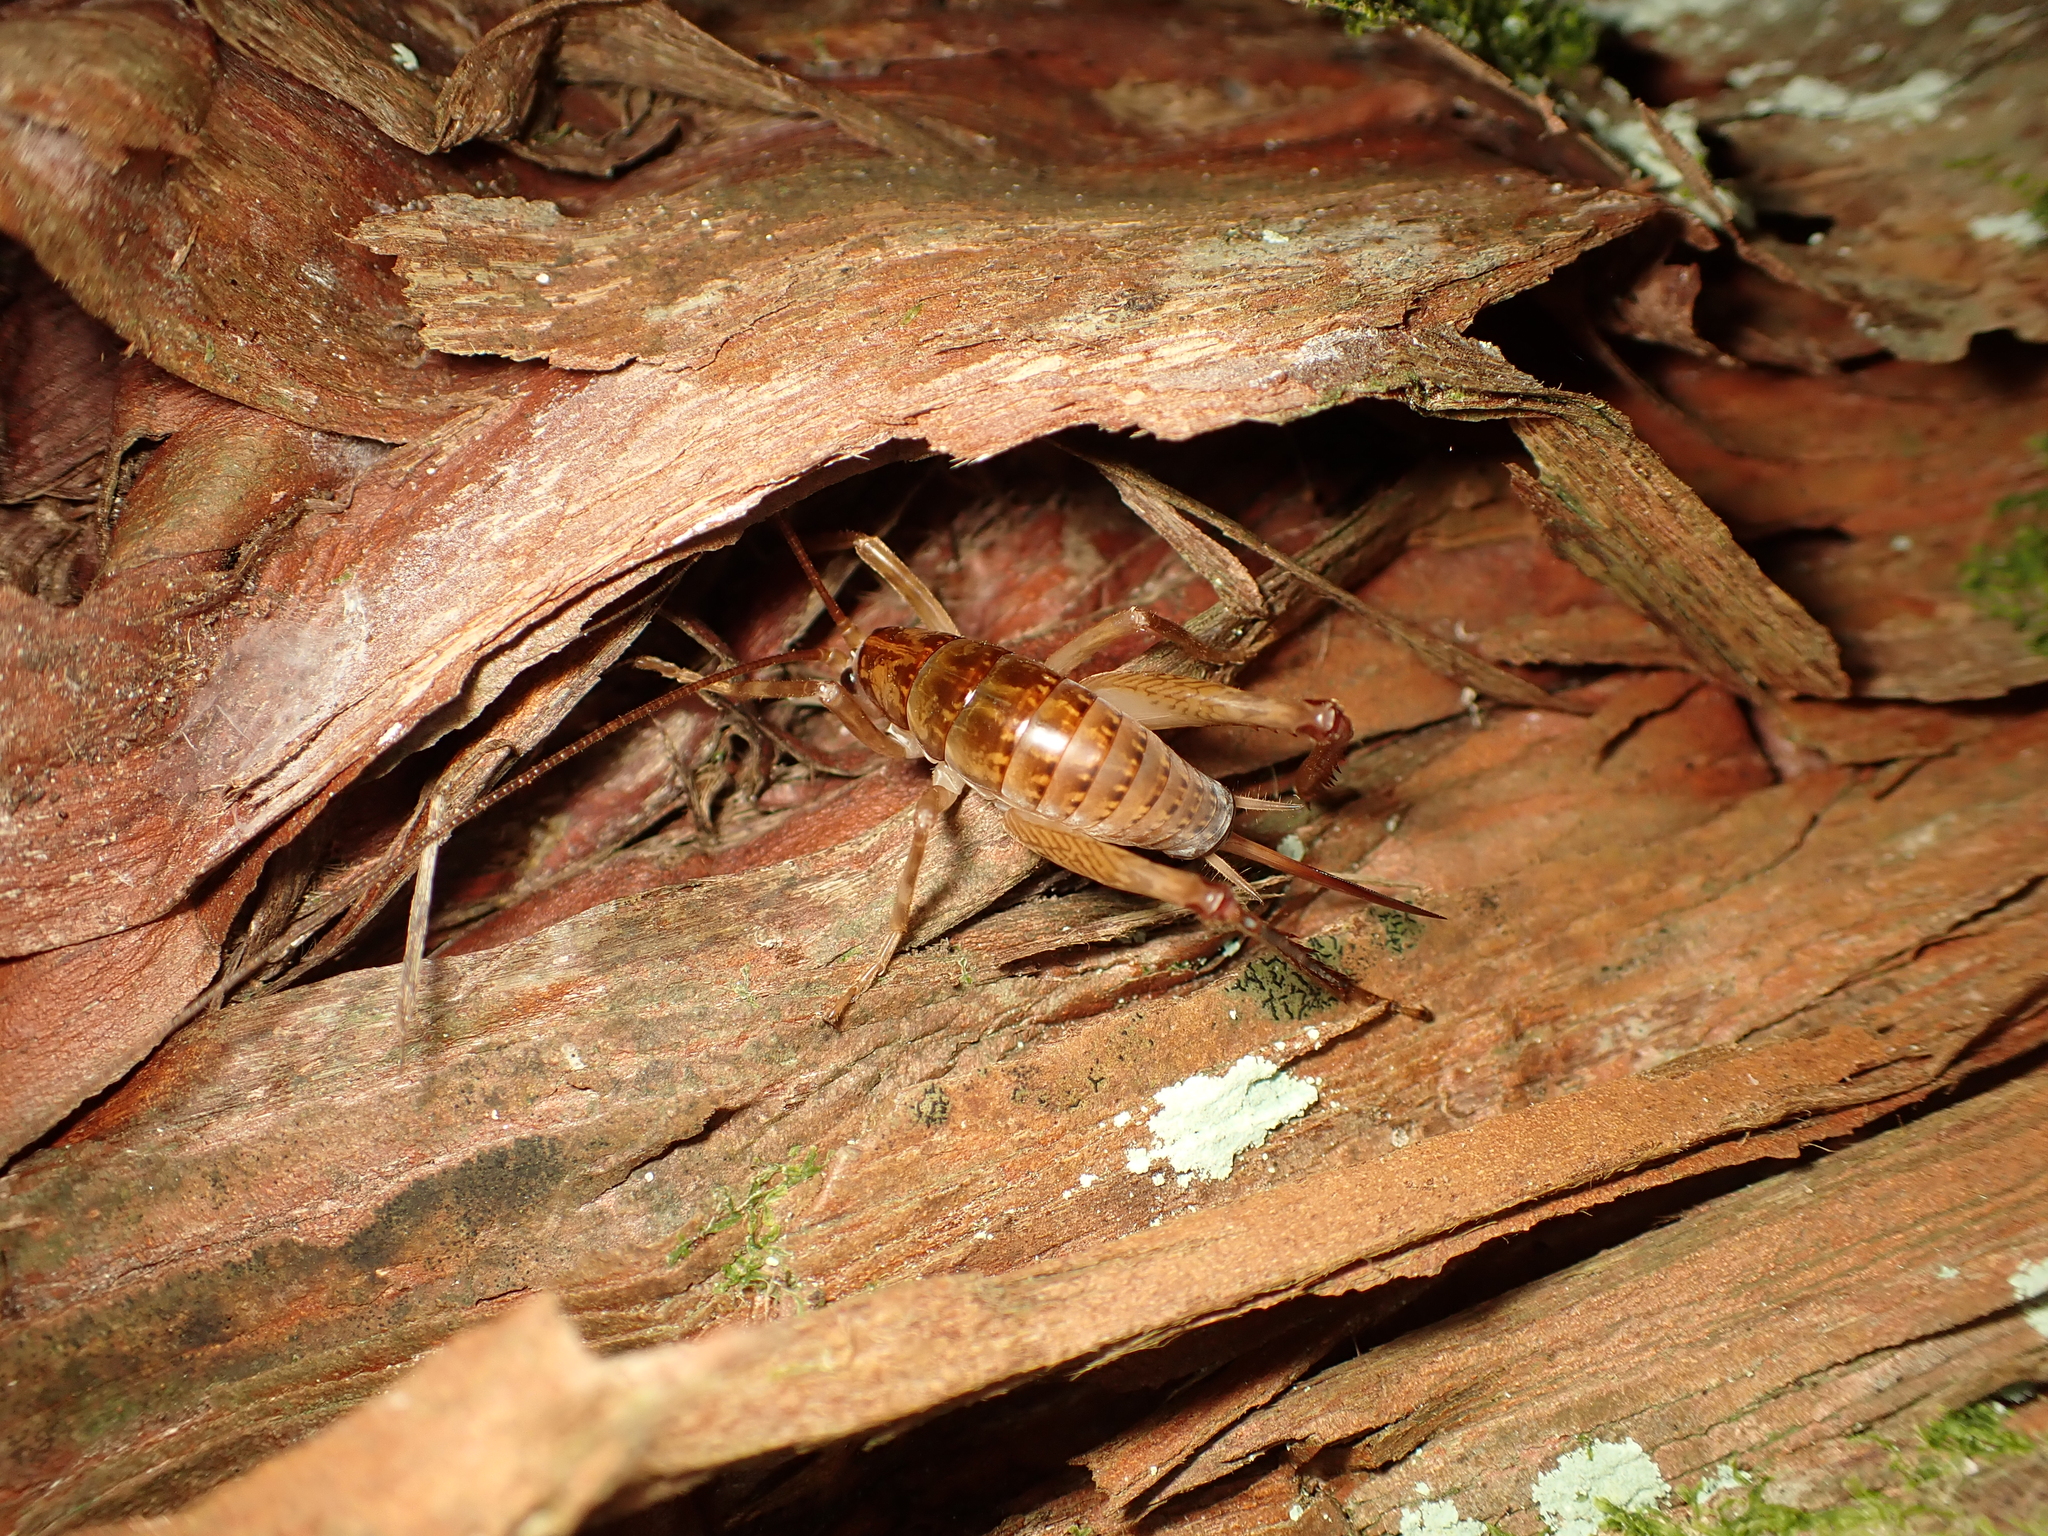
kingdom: Animalia
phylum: Arthropoda
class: Insecta
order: Orthoptera
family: Rhaphidophoridae
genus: Talitropsis
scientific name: Talitropsis sedilloti
